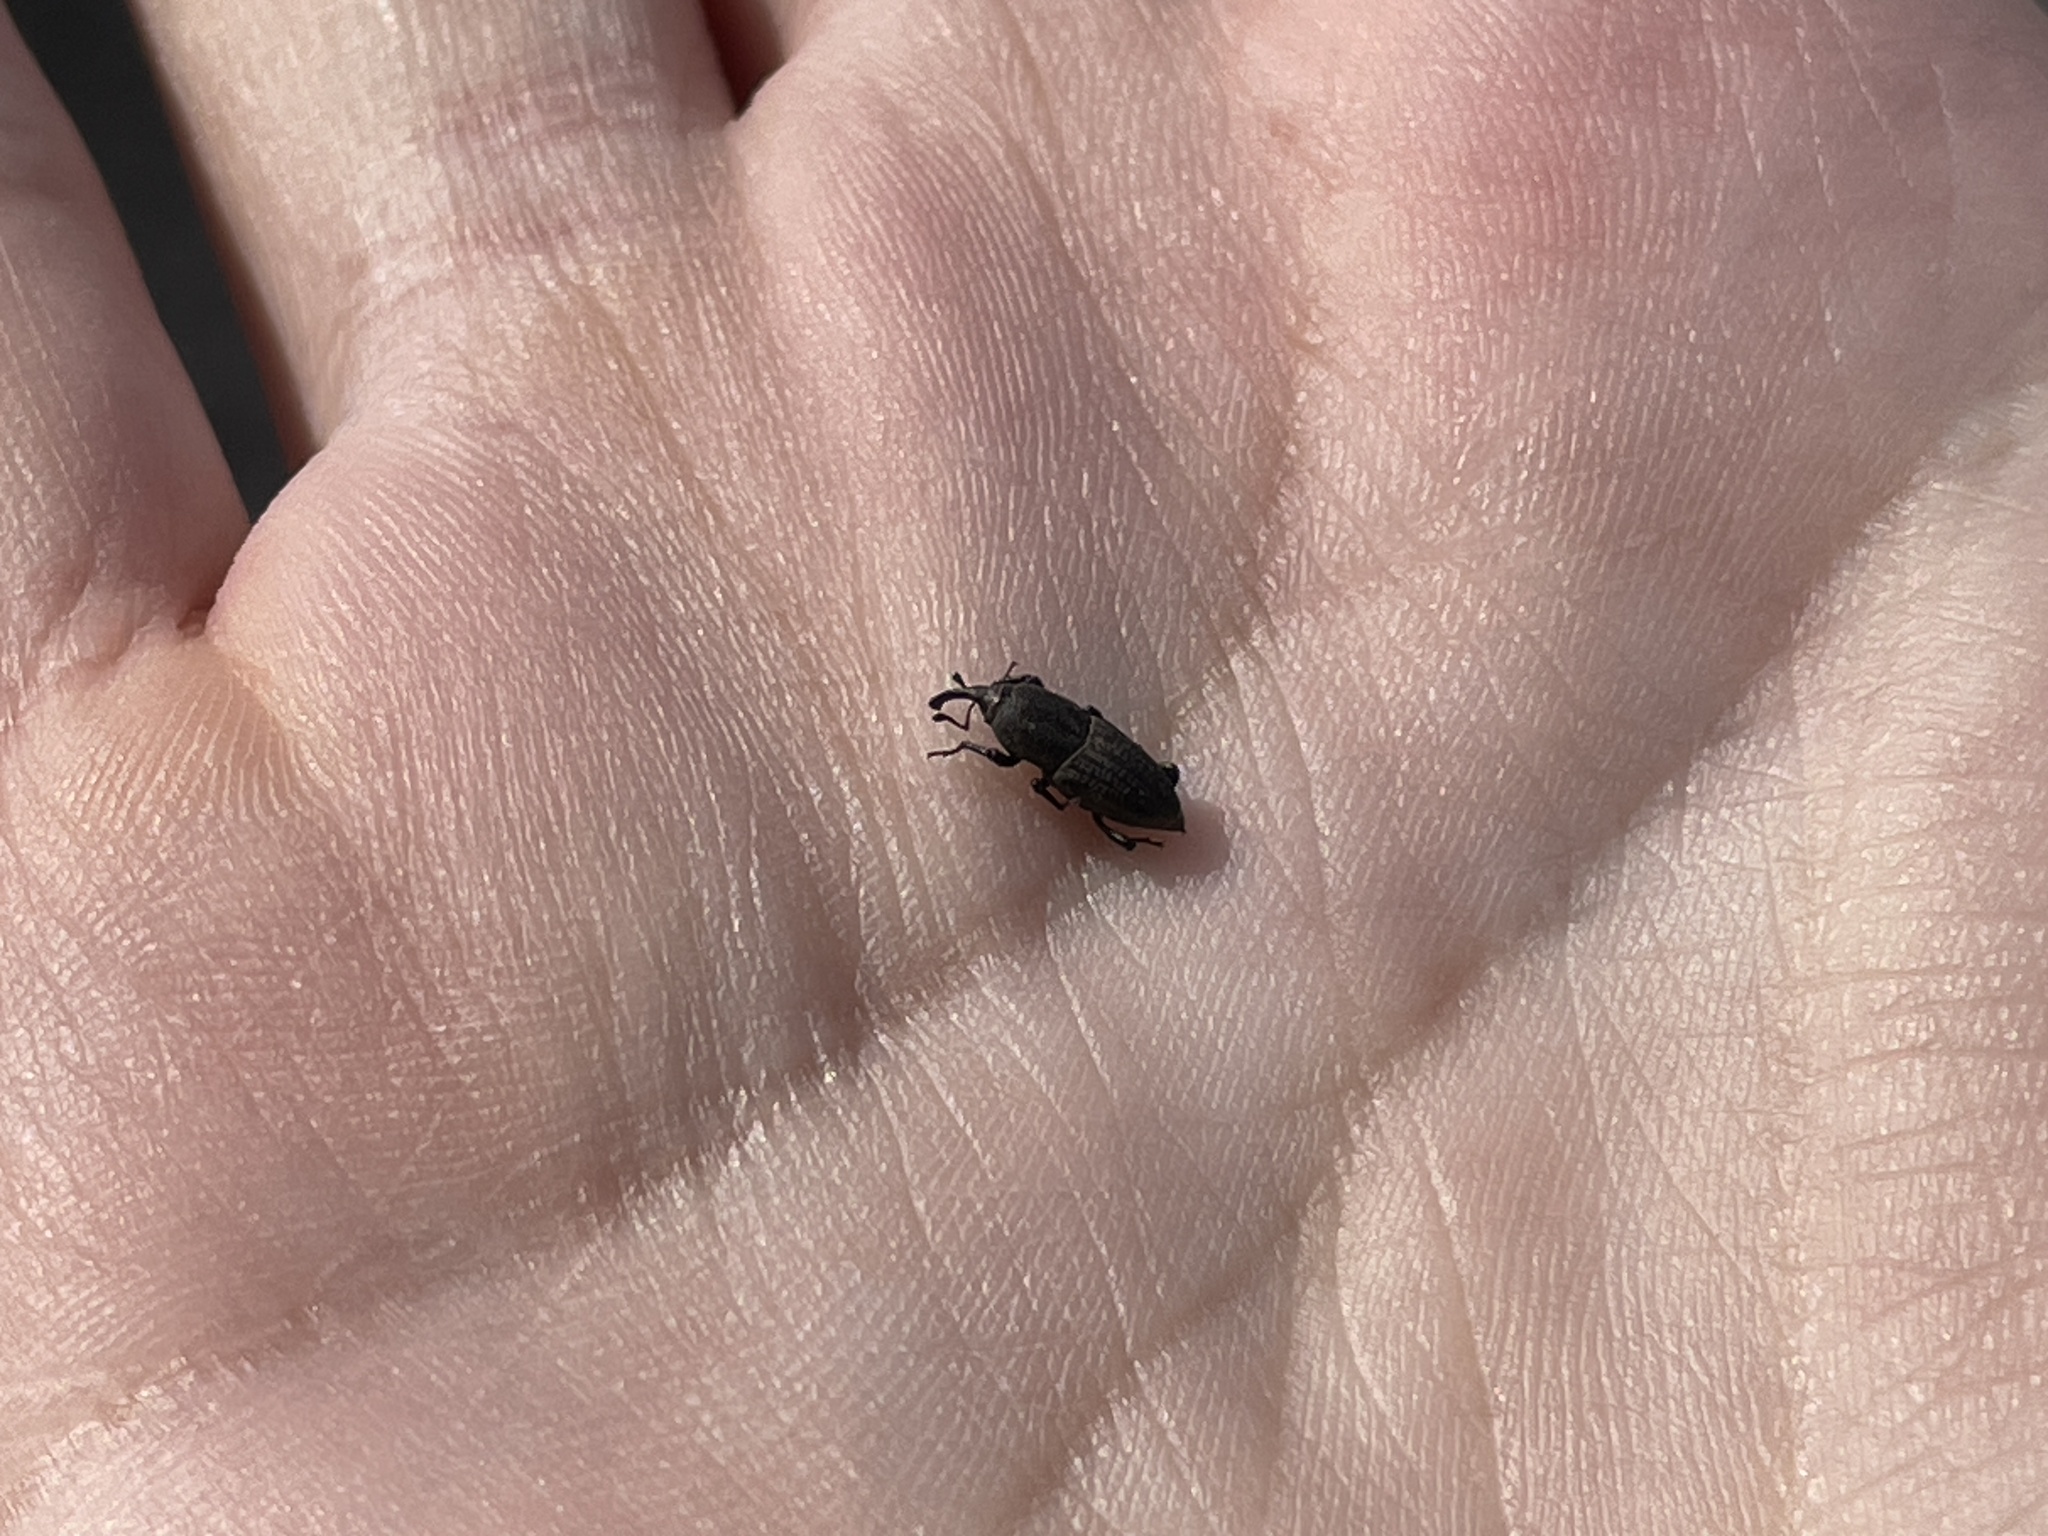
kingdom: Animalia
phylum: Arthropoda
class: Insecta
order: Coleoptera
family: Dryophthoridae
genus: Sphenophorus
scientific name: Sphenophorus interstitialis
